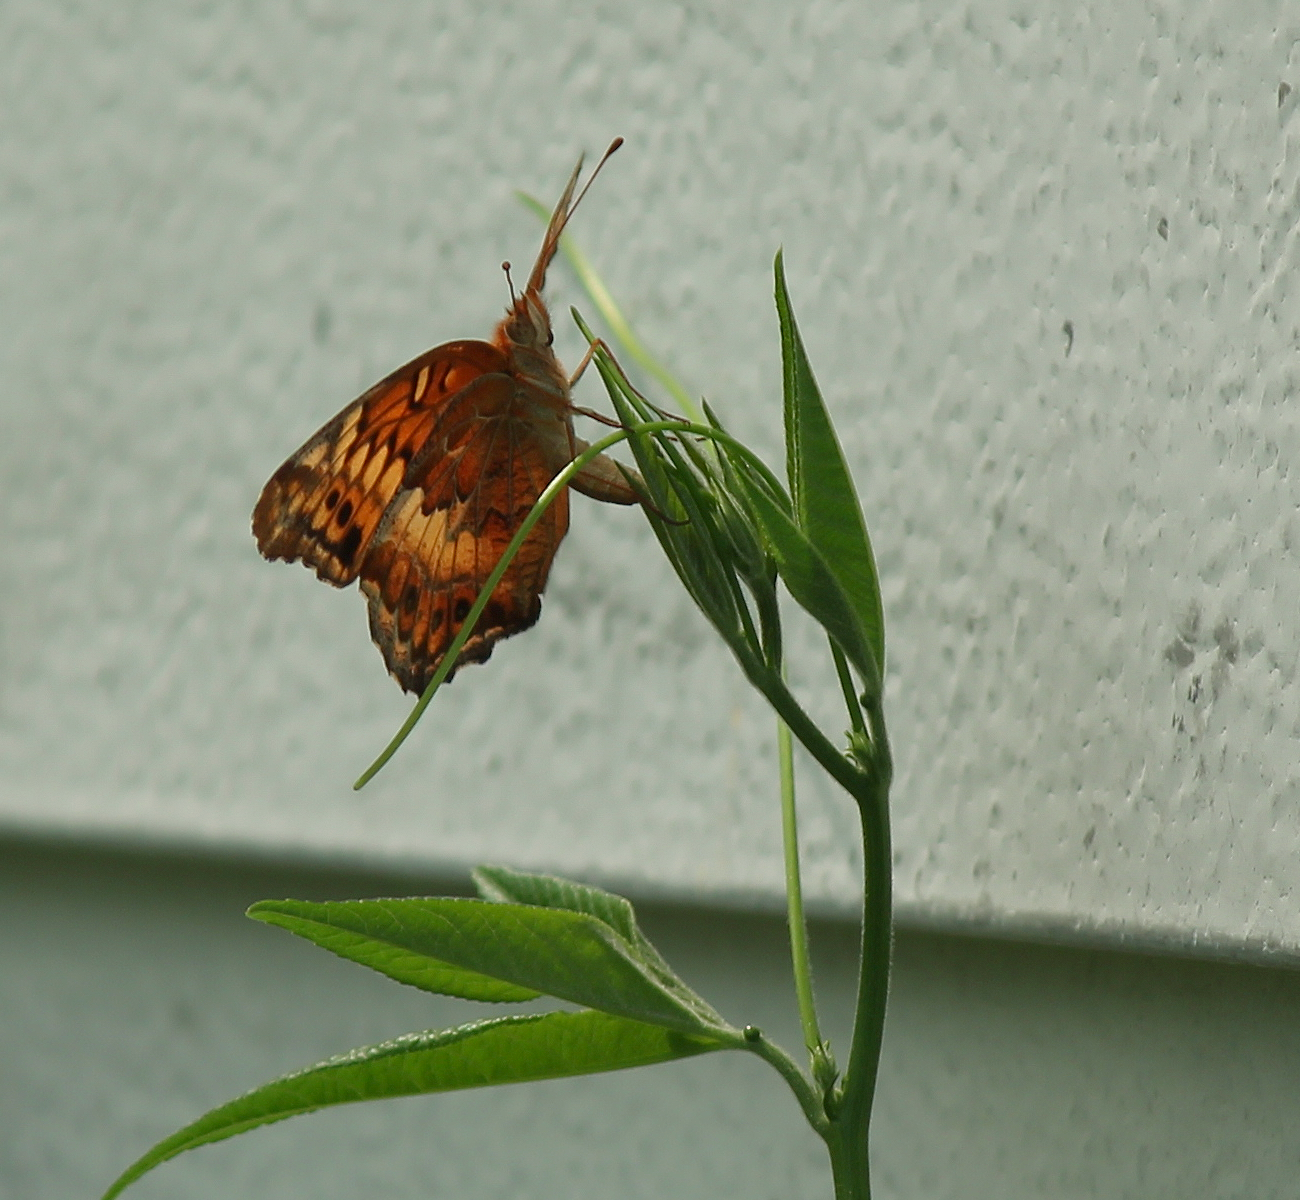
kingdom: Animalia
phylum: Arthropoda
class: Insecta
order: Lepidoptera
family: Nymphalidae
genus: Euptoieta
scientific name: Euptoieta claudia
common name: Variegated fritillary
